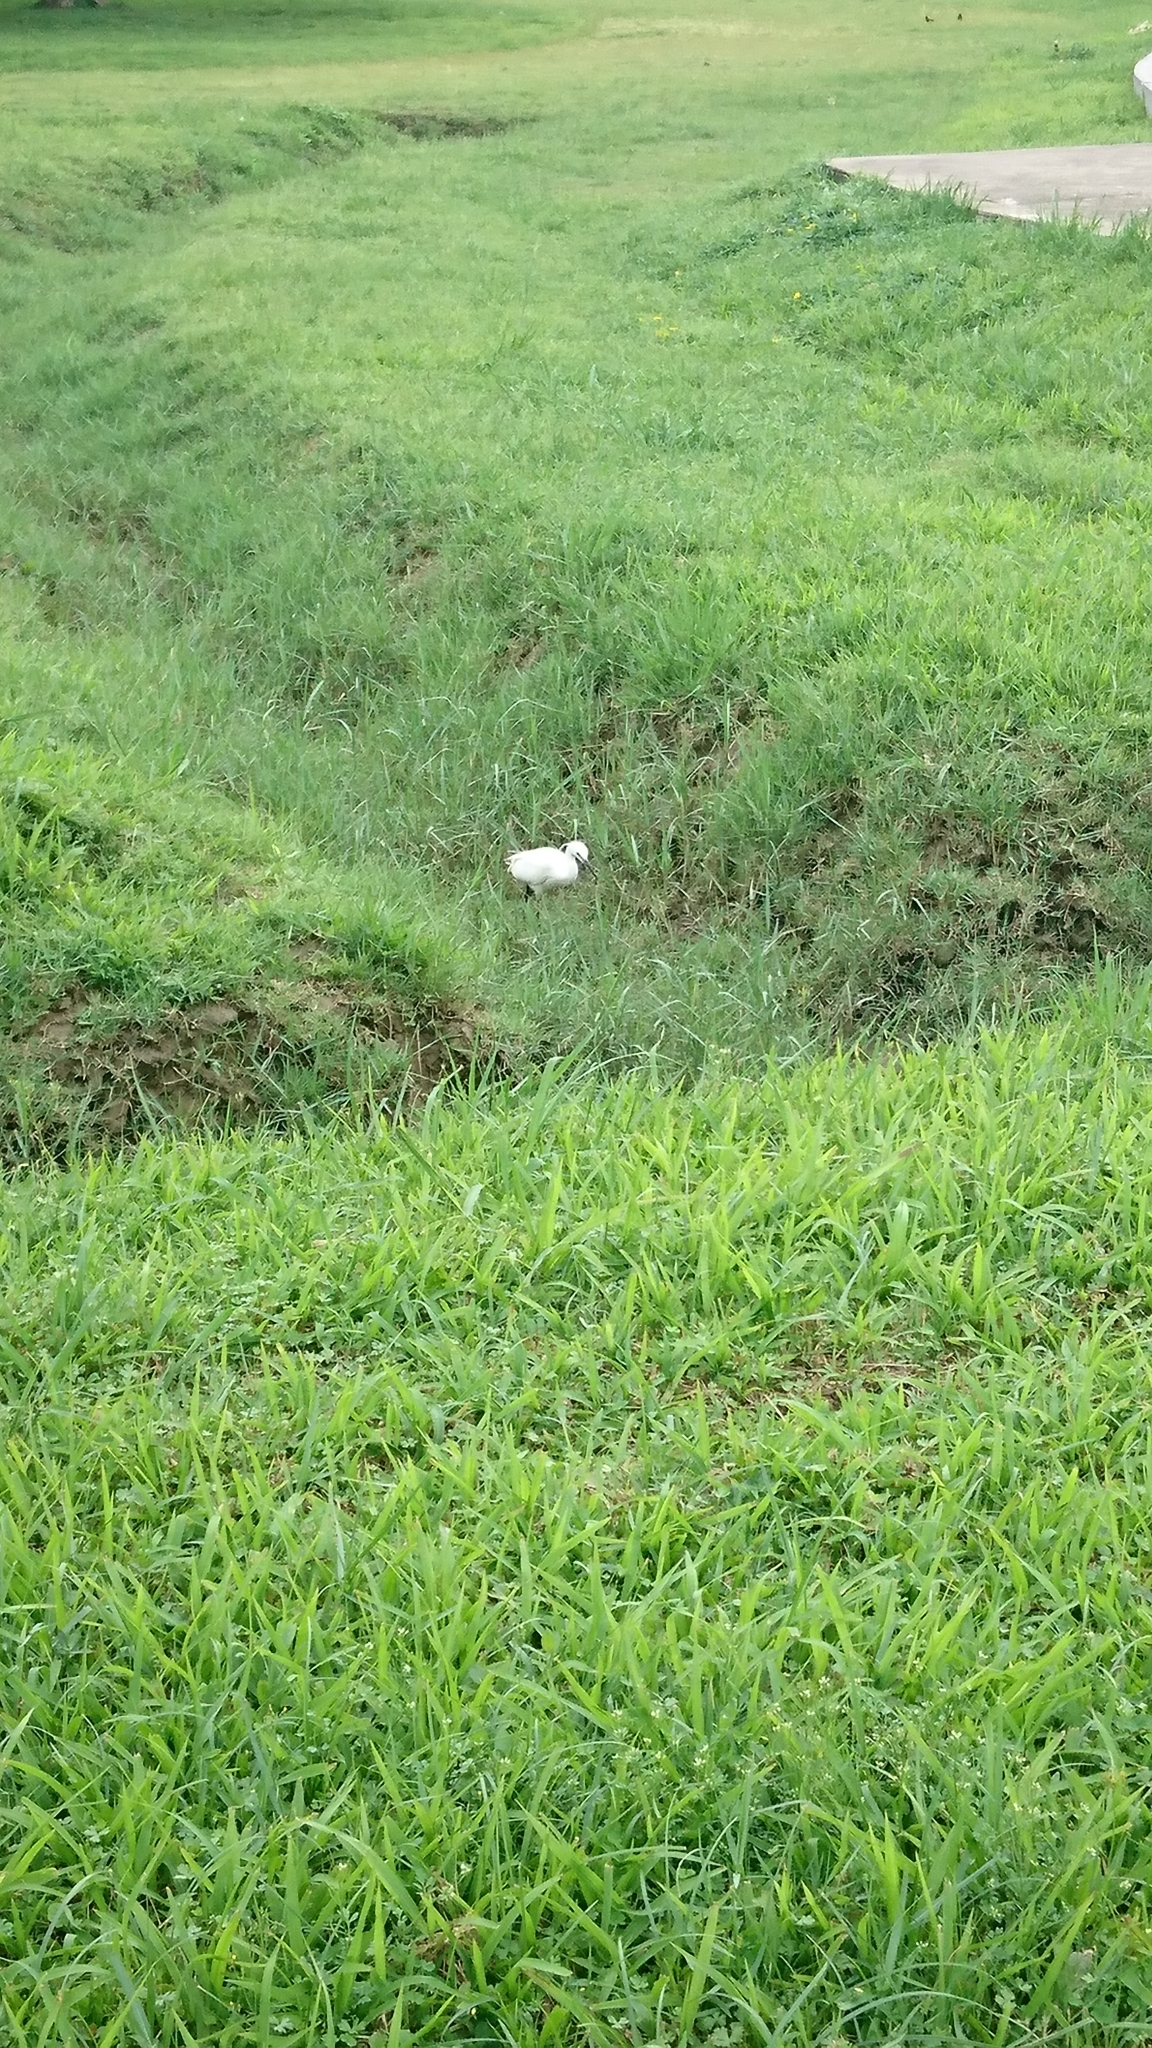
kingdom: Animalia
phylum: Chordata
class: Aves
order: Pelecaniformes
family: Ardeidae
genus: Egretta
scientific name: Egretta garzetta
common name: Little egret
